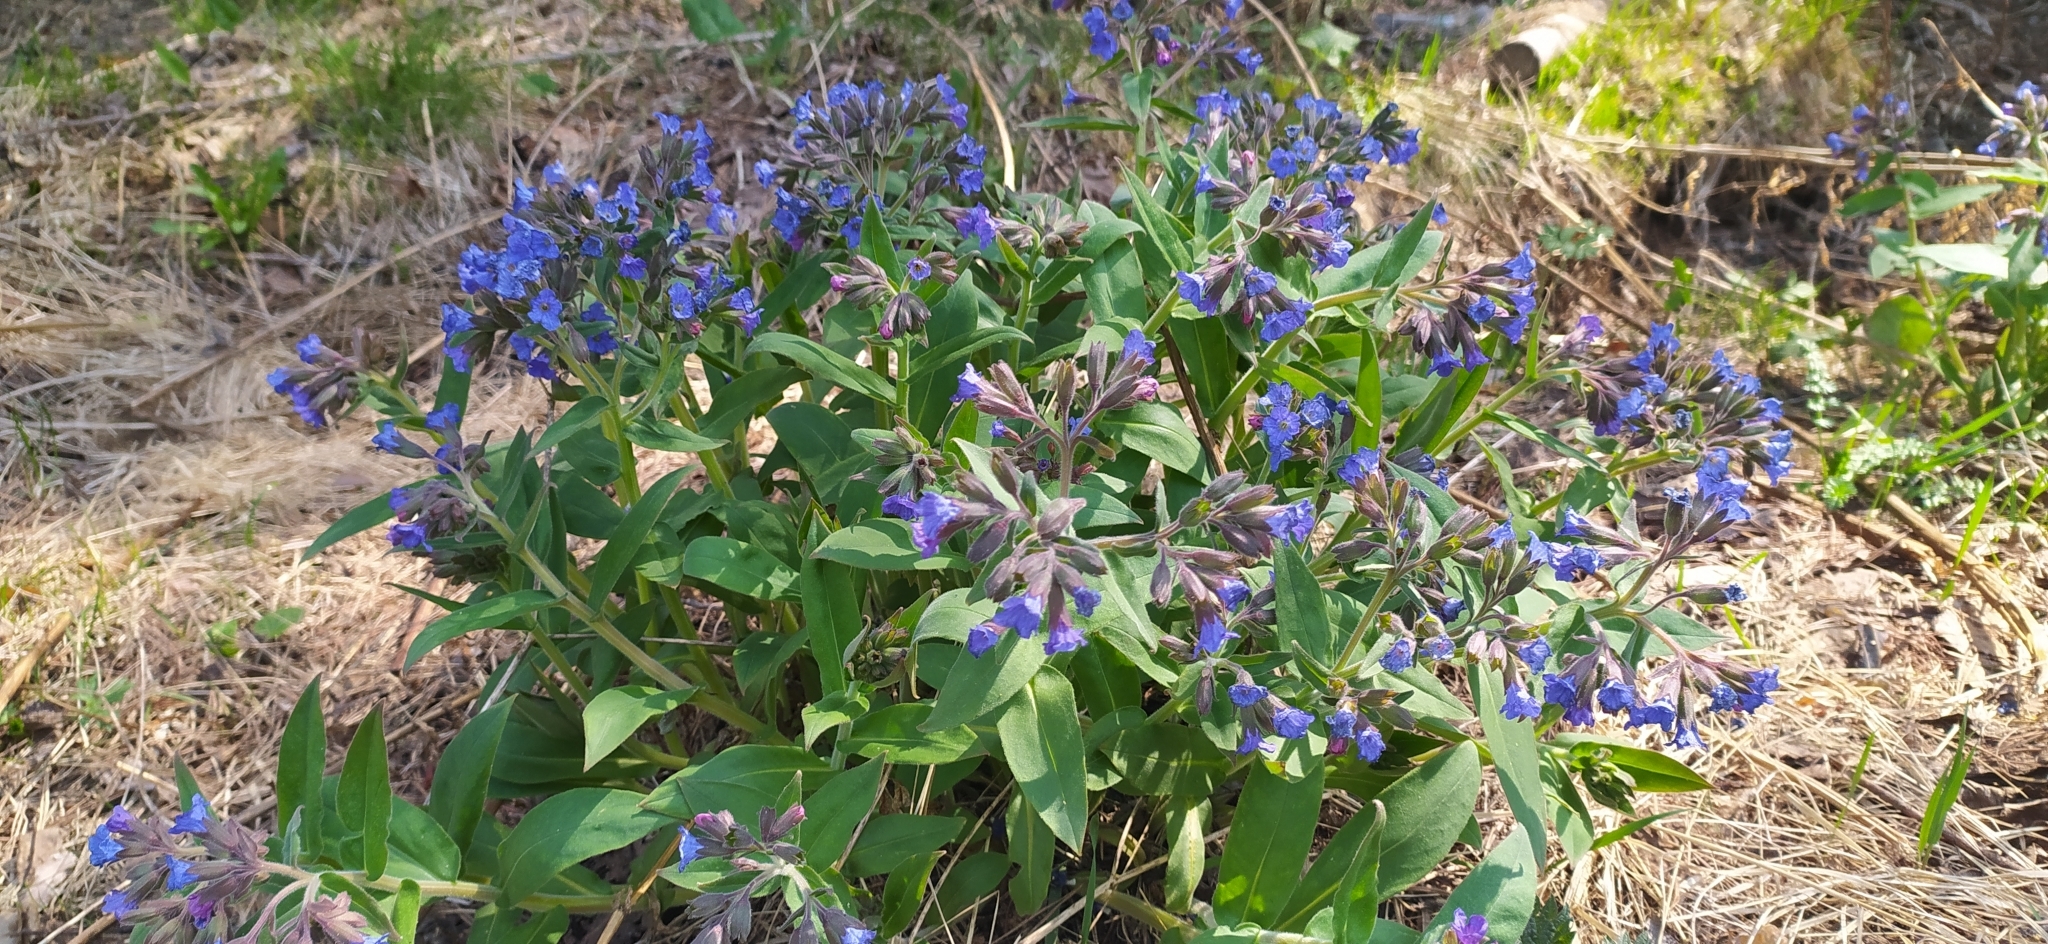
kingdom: Plantae
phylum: Tracheophyta
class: Magnoliopsida
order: Boraginales
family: Boraginaceae
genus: Pulmonaria
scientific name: Pulmonaria mollis
